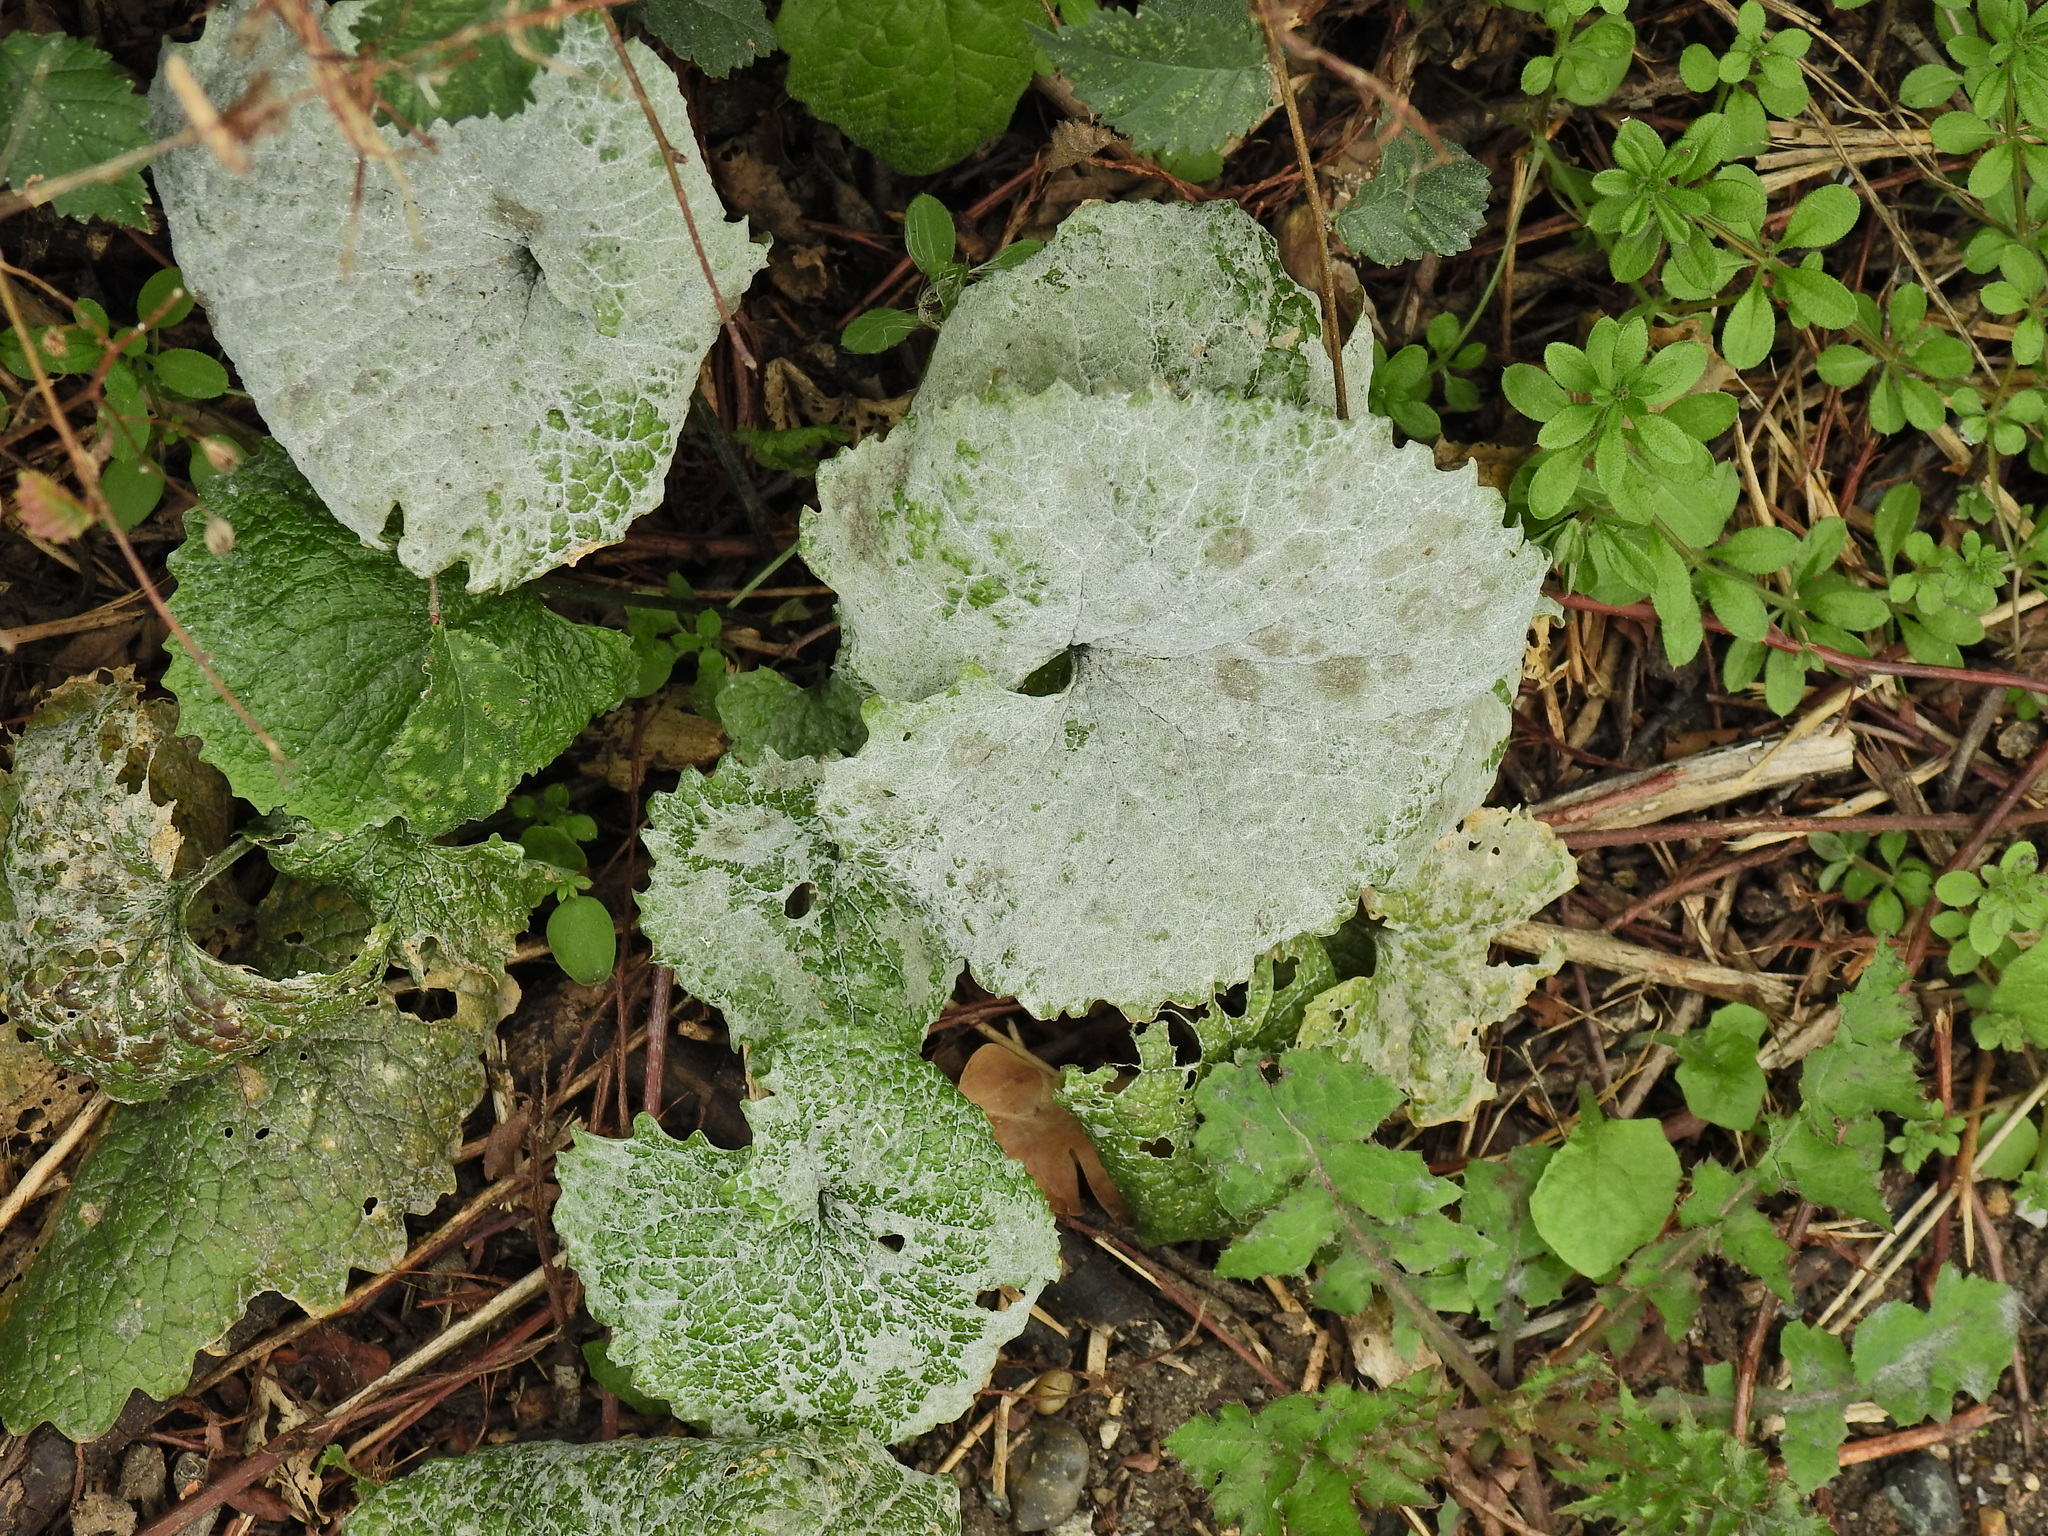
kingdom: Fungi
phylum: Ascomycota
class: Leotiomycetes
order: Helotiales
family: Erysiphaceae
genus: Erysiphe
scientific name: Erysiphe cruciferarum
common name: Brassica powdery mildew
